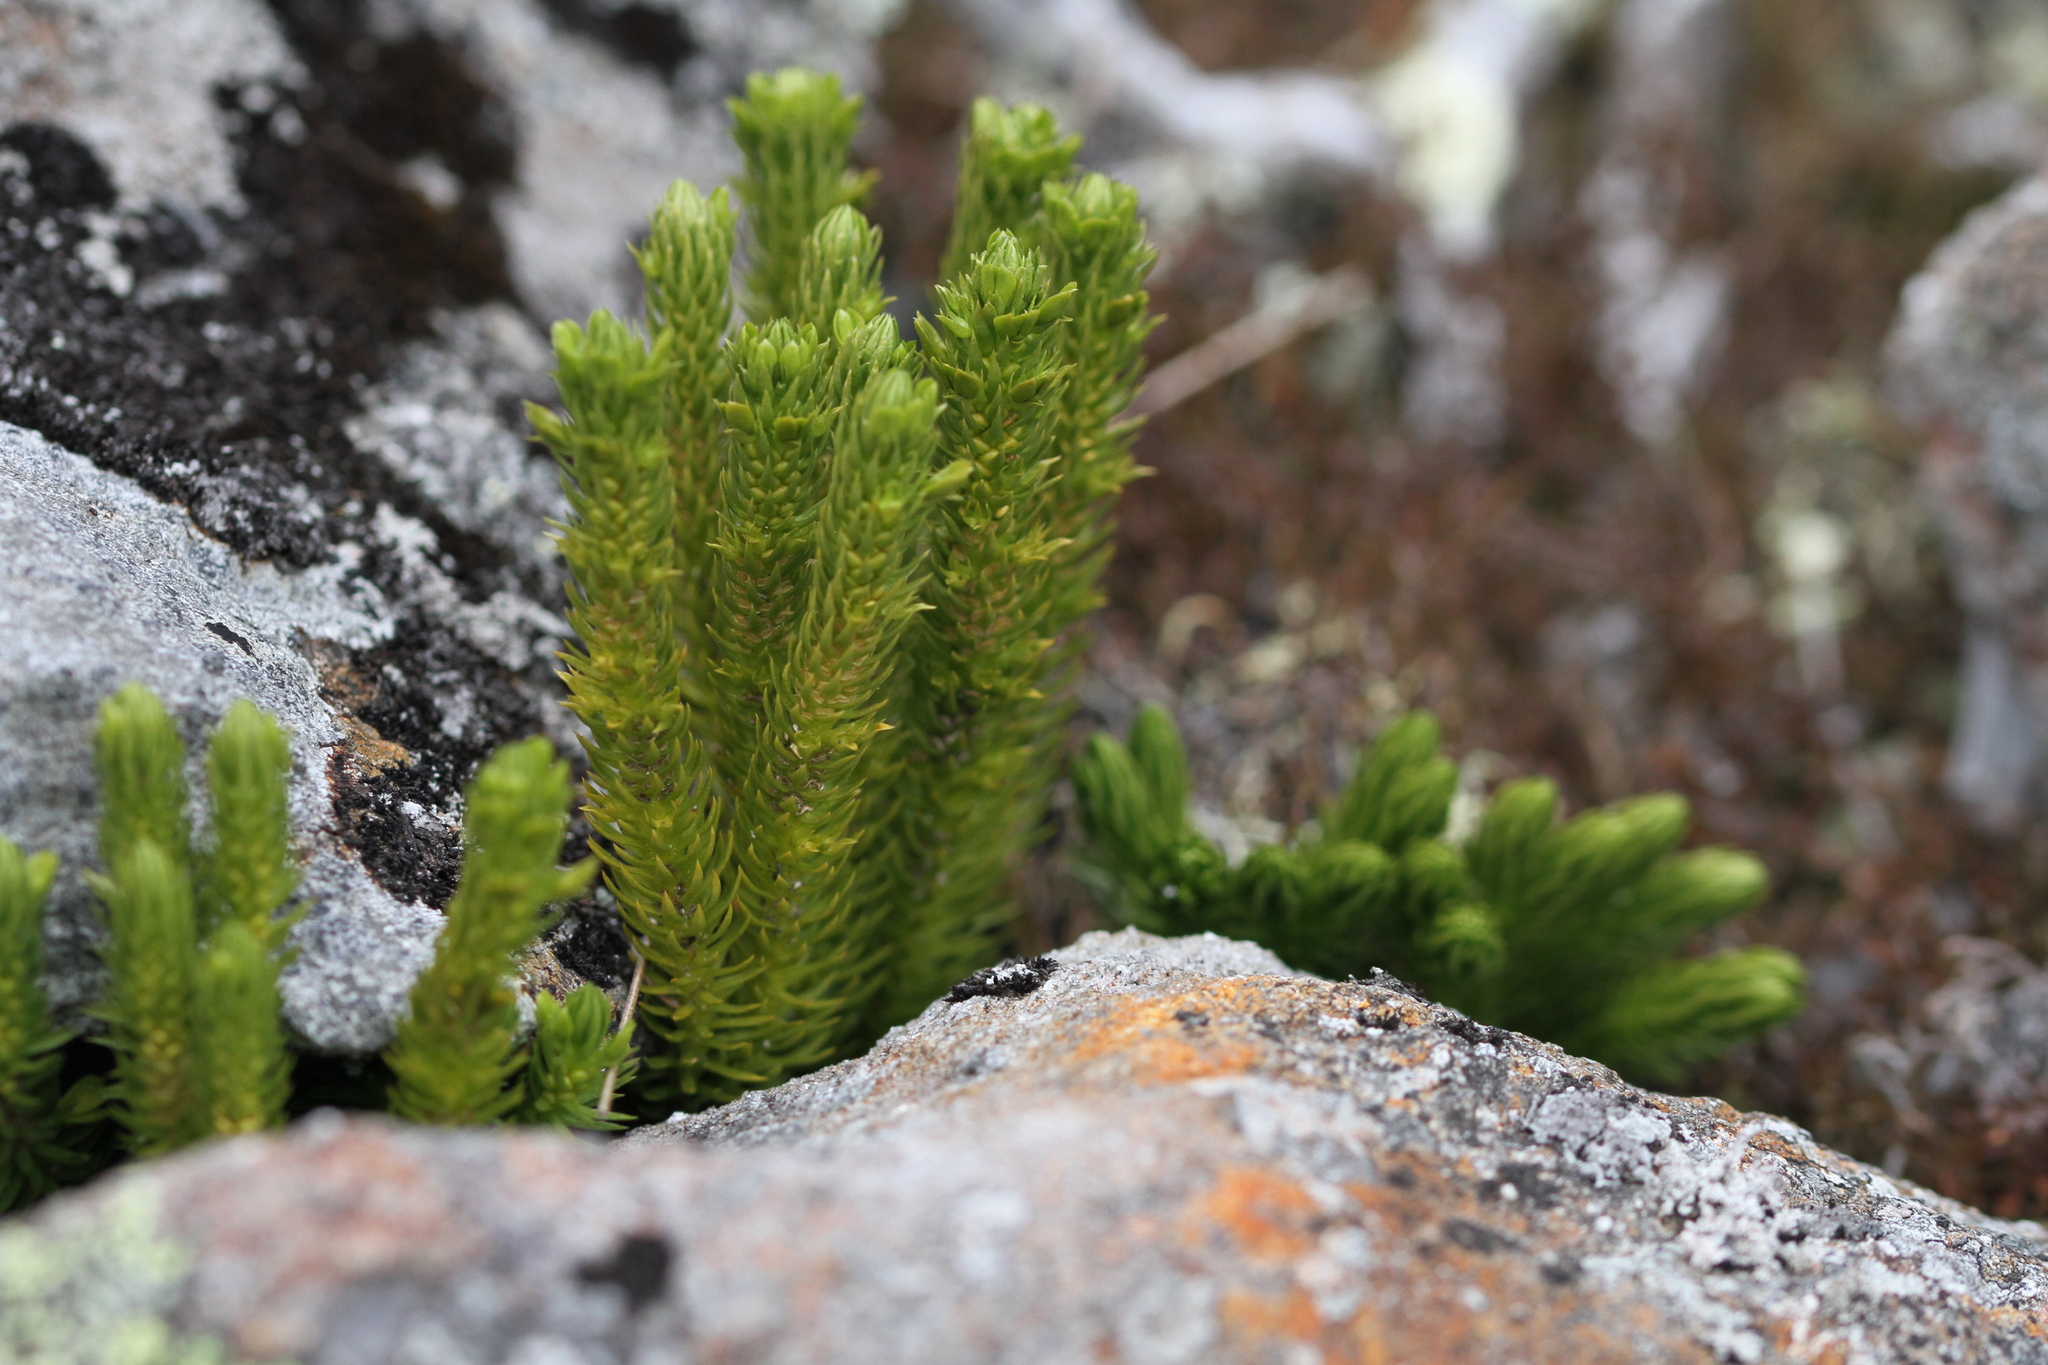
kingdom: Plantae
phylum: Tracheophyta
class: Lycopodiopsida
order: Lycopodiales
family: Lycopodiaceae
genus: Huperzia
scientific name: Huperzia selago
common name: Northern firmoss
